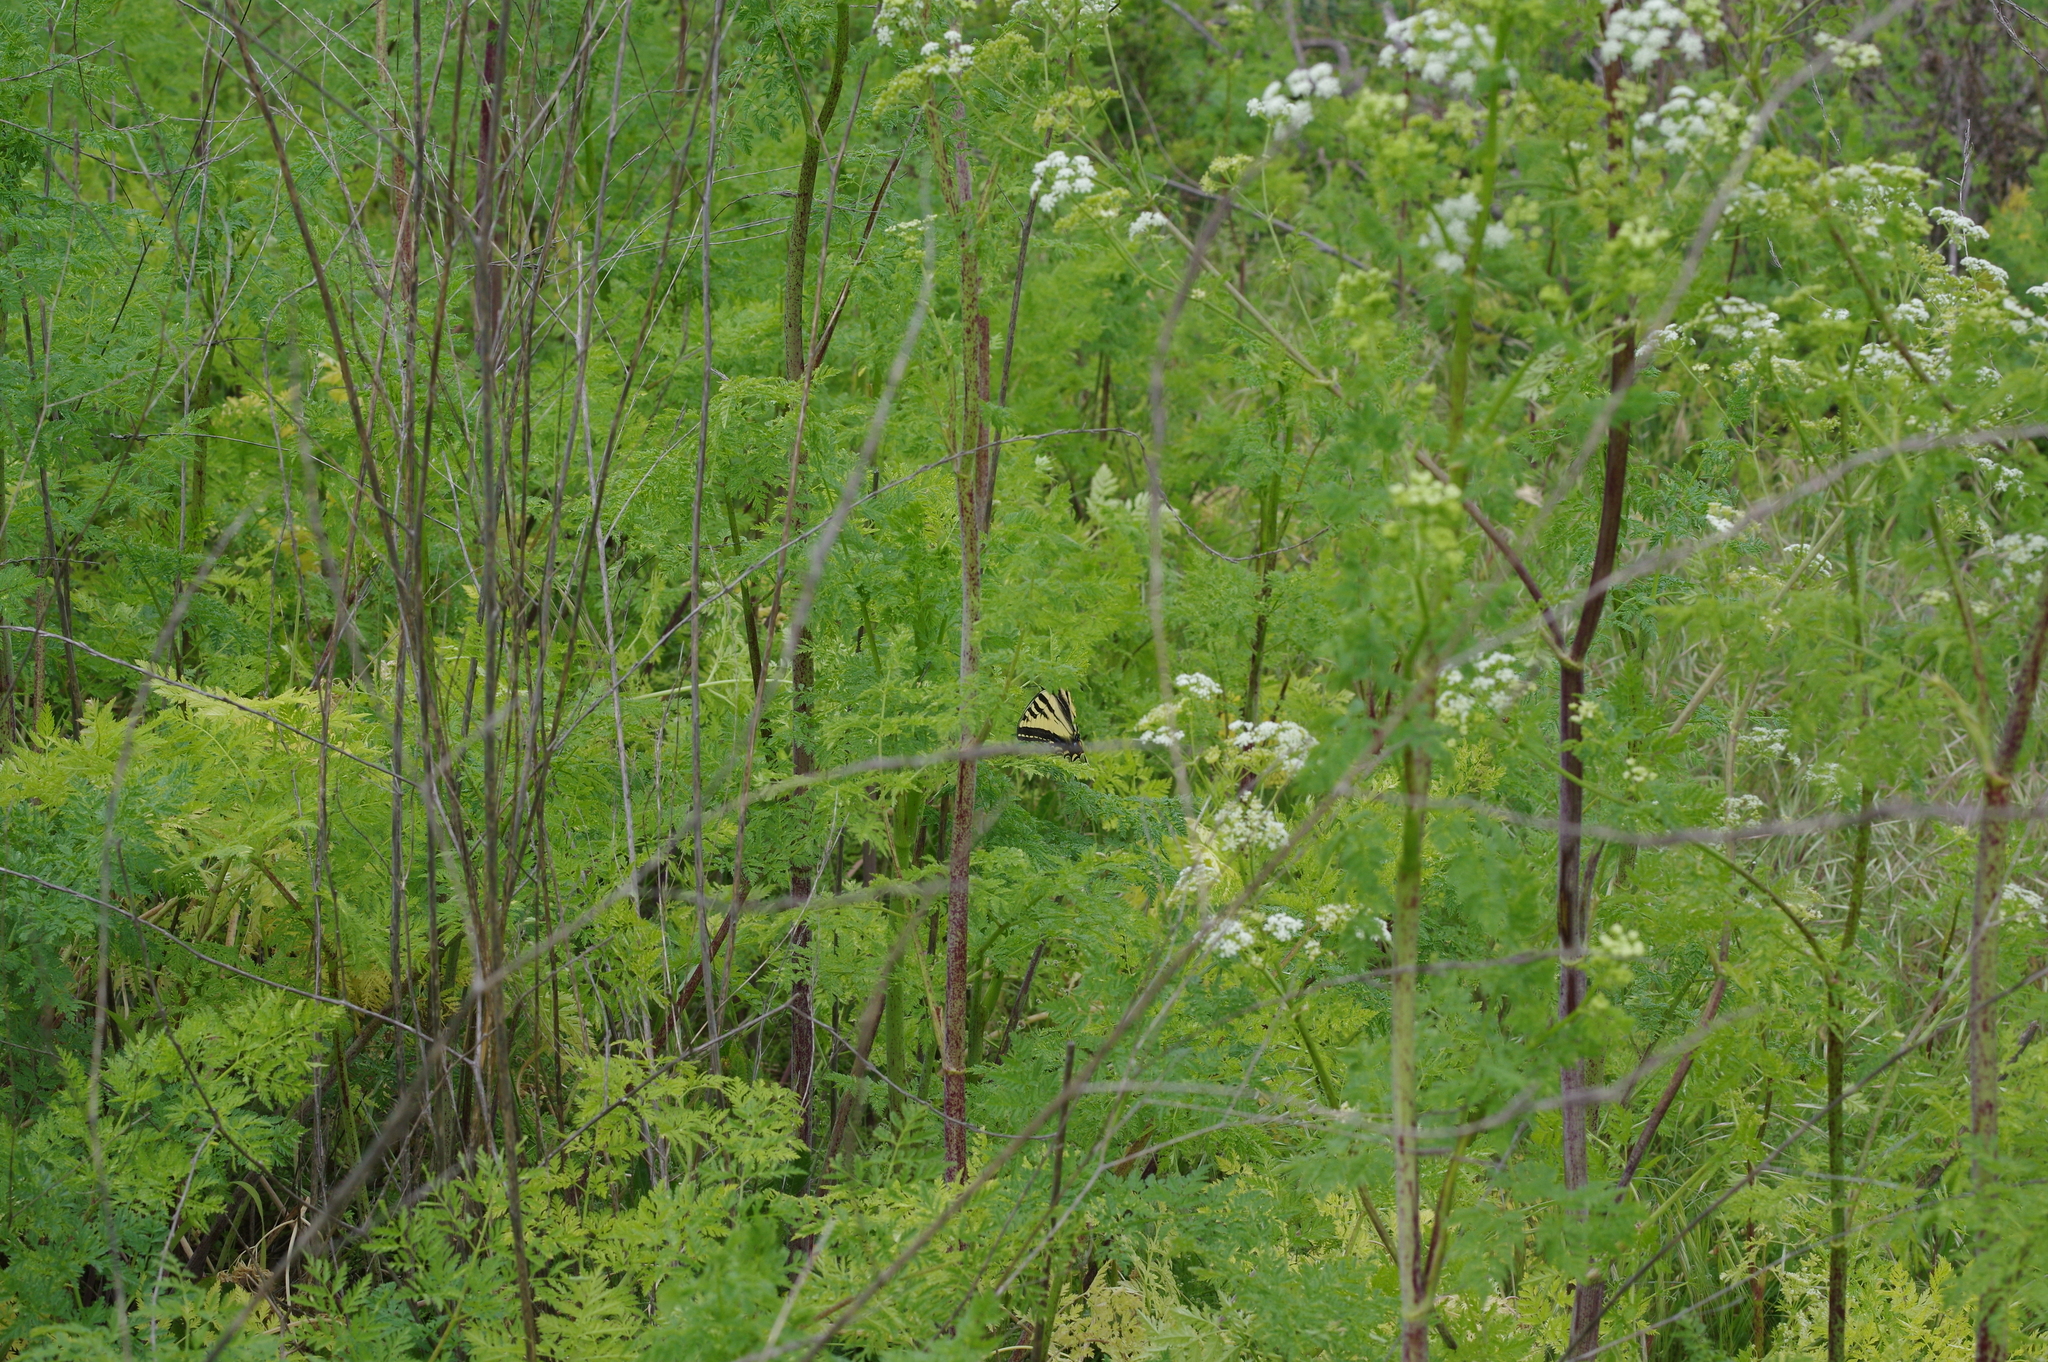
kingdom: Animalia
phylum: Arthropoda
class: Insecta
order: Lepidoptera
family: Papilionidae
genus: Papilio
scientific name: Papilio rutulus
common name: Western tiger swallowtail
